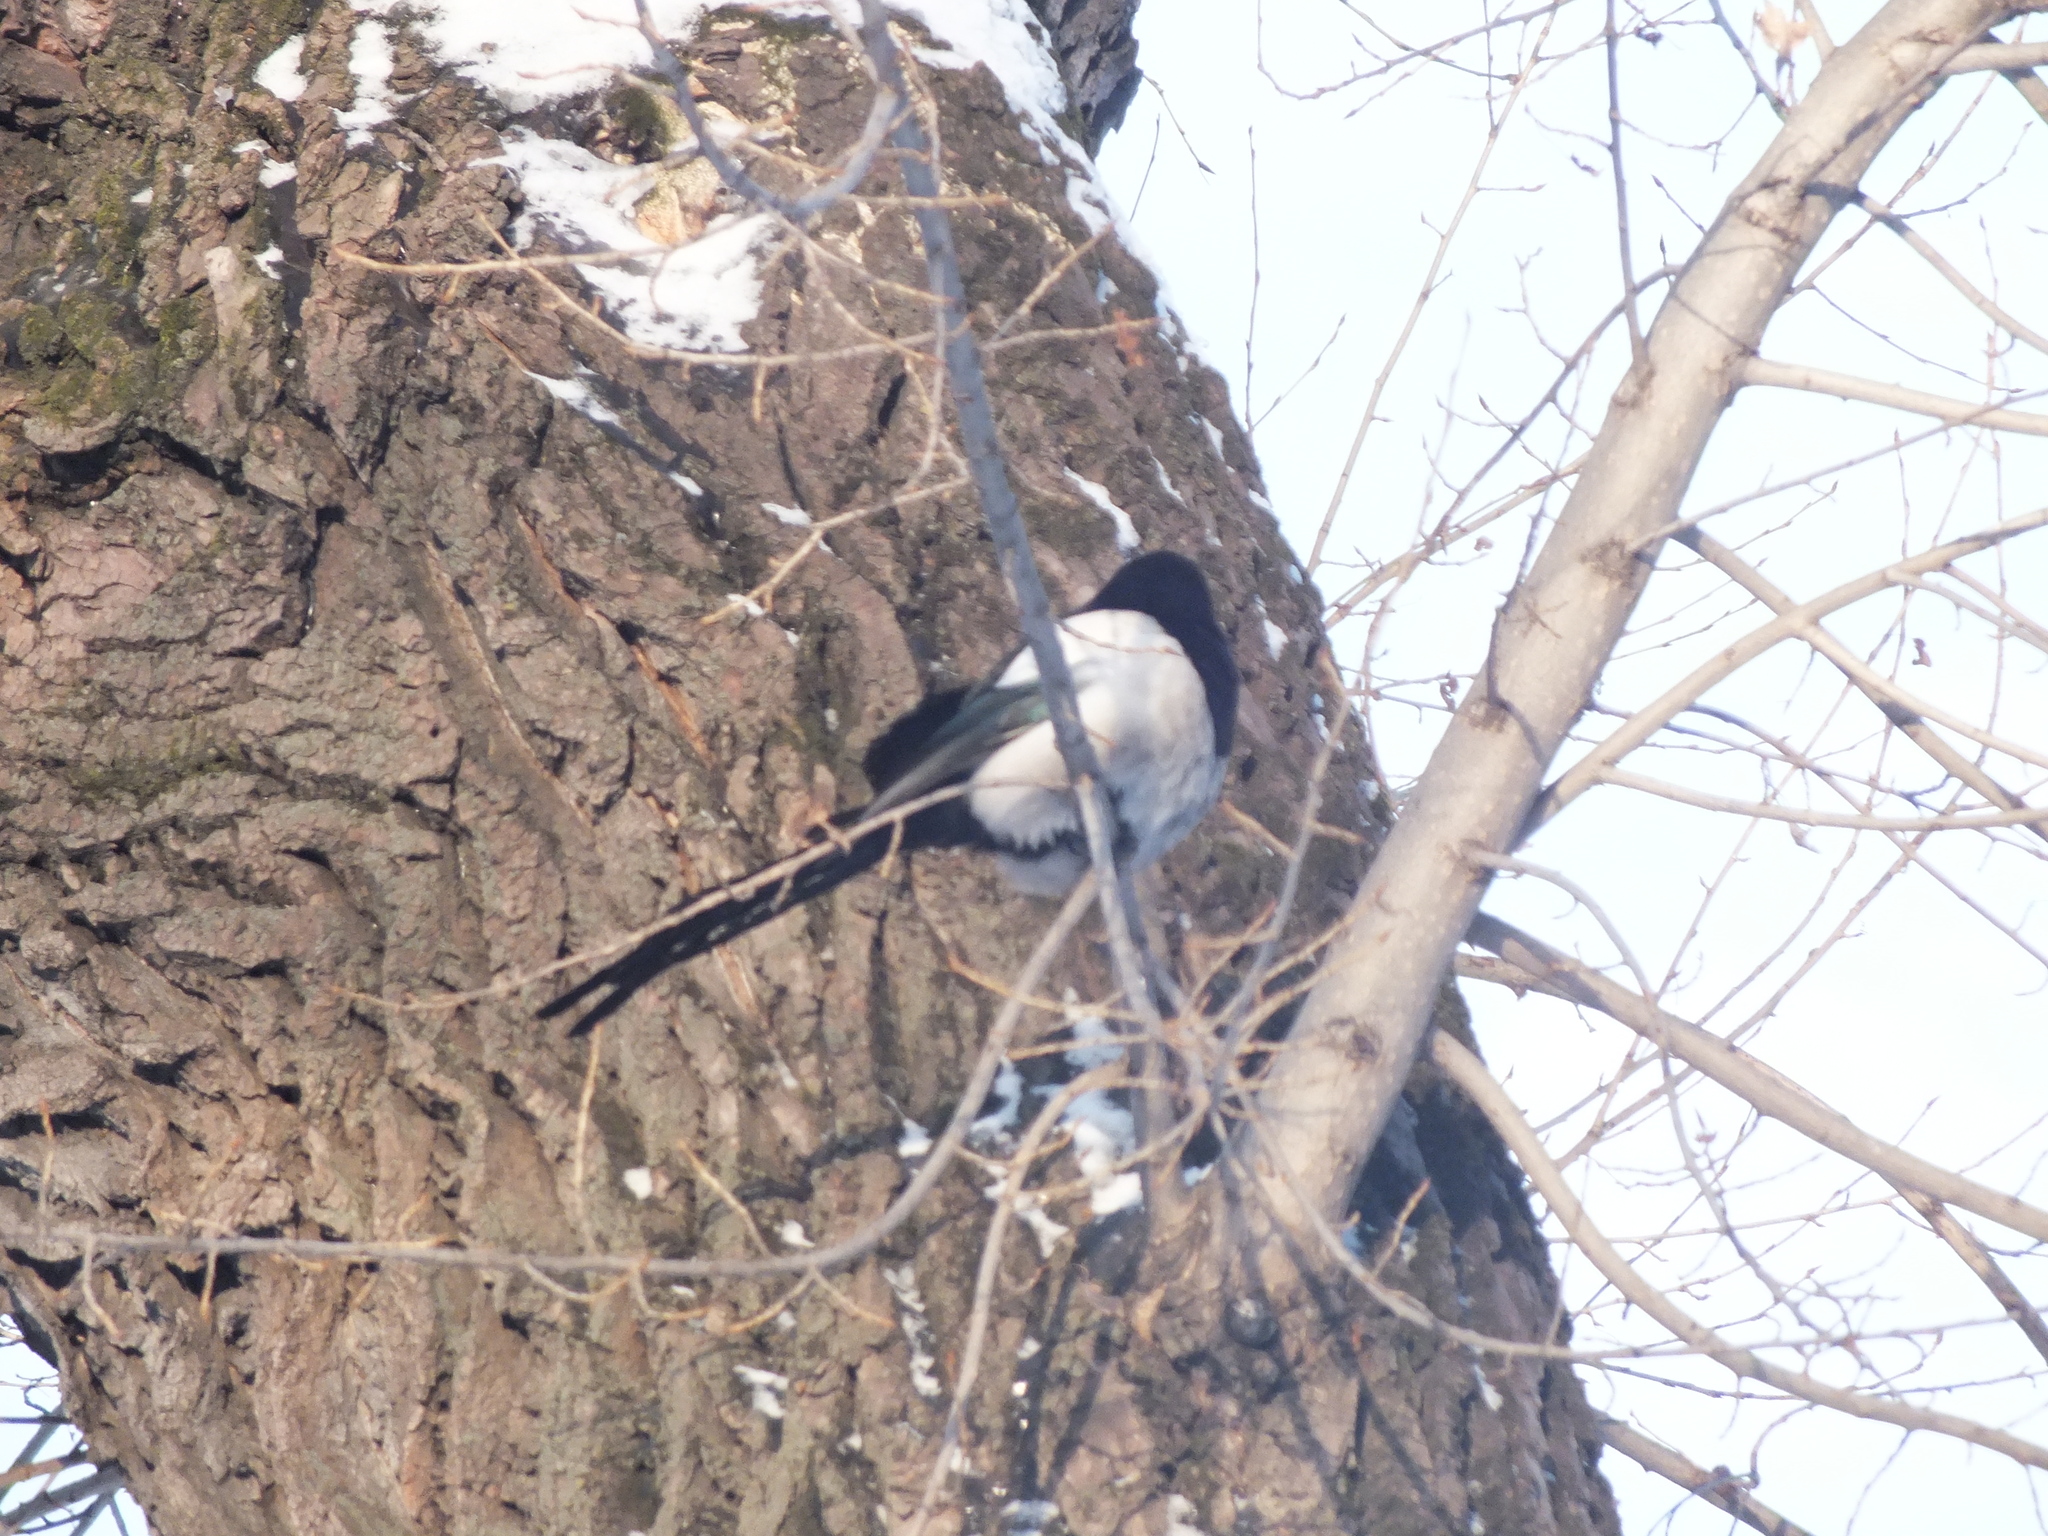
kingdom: Animalia
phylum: Chordata
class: Aves
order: Passeriformes
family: Corvidae
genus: Pica
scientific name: Pica pica
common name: Eurasian magpie
